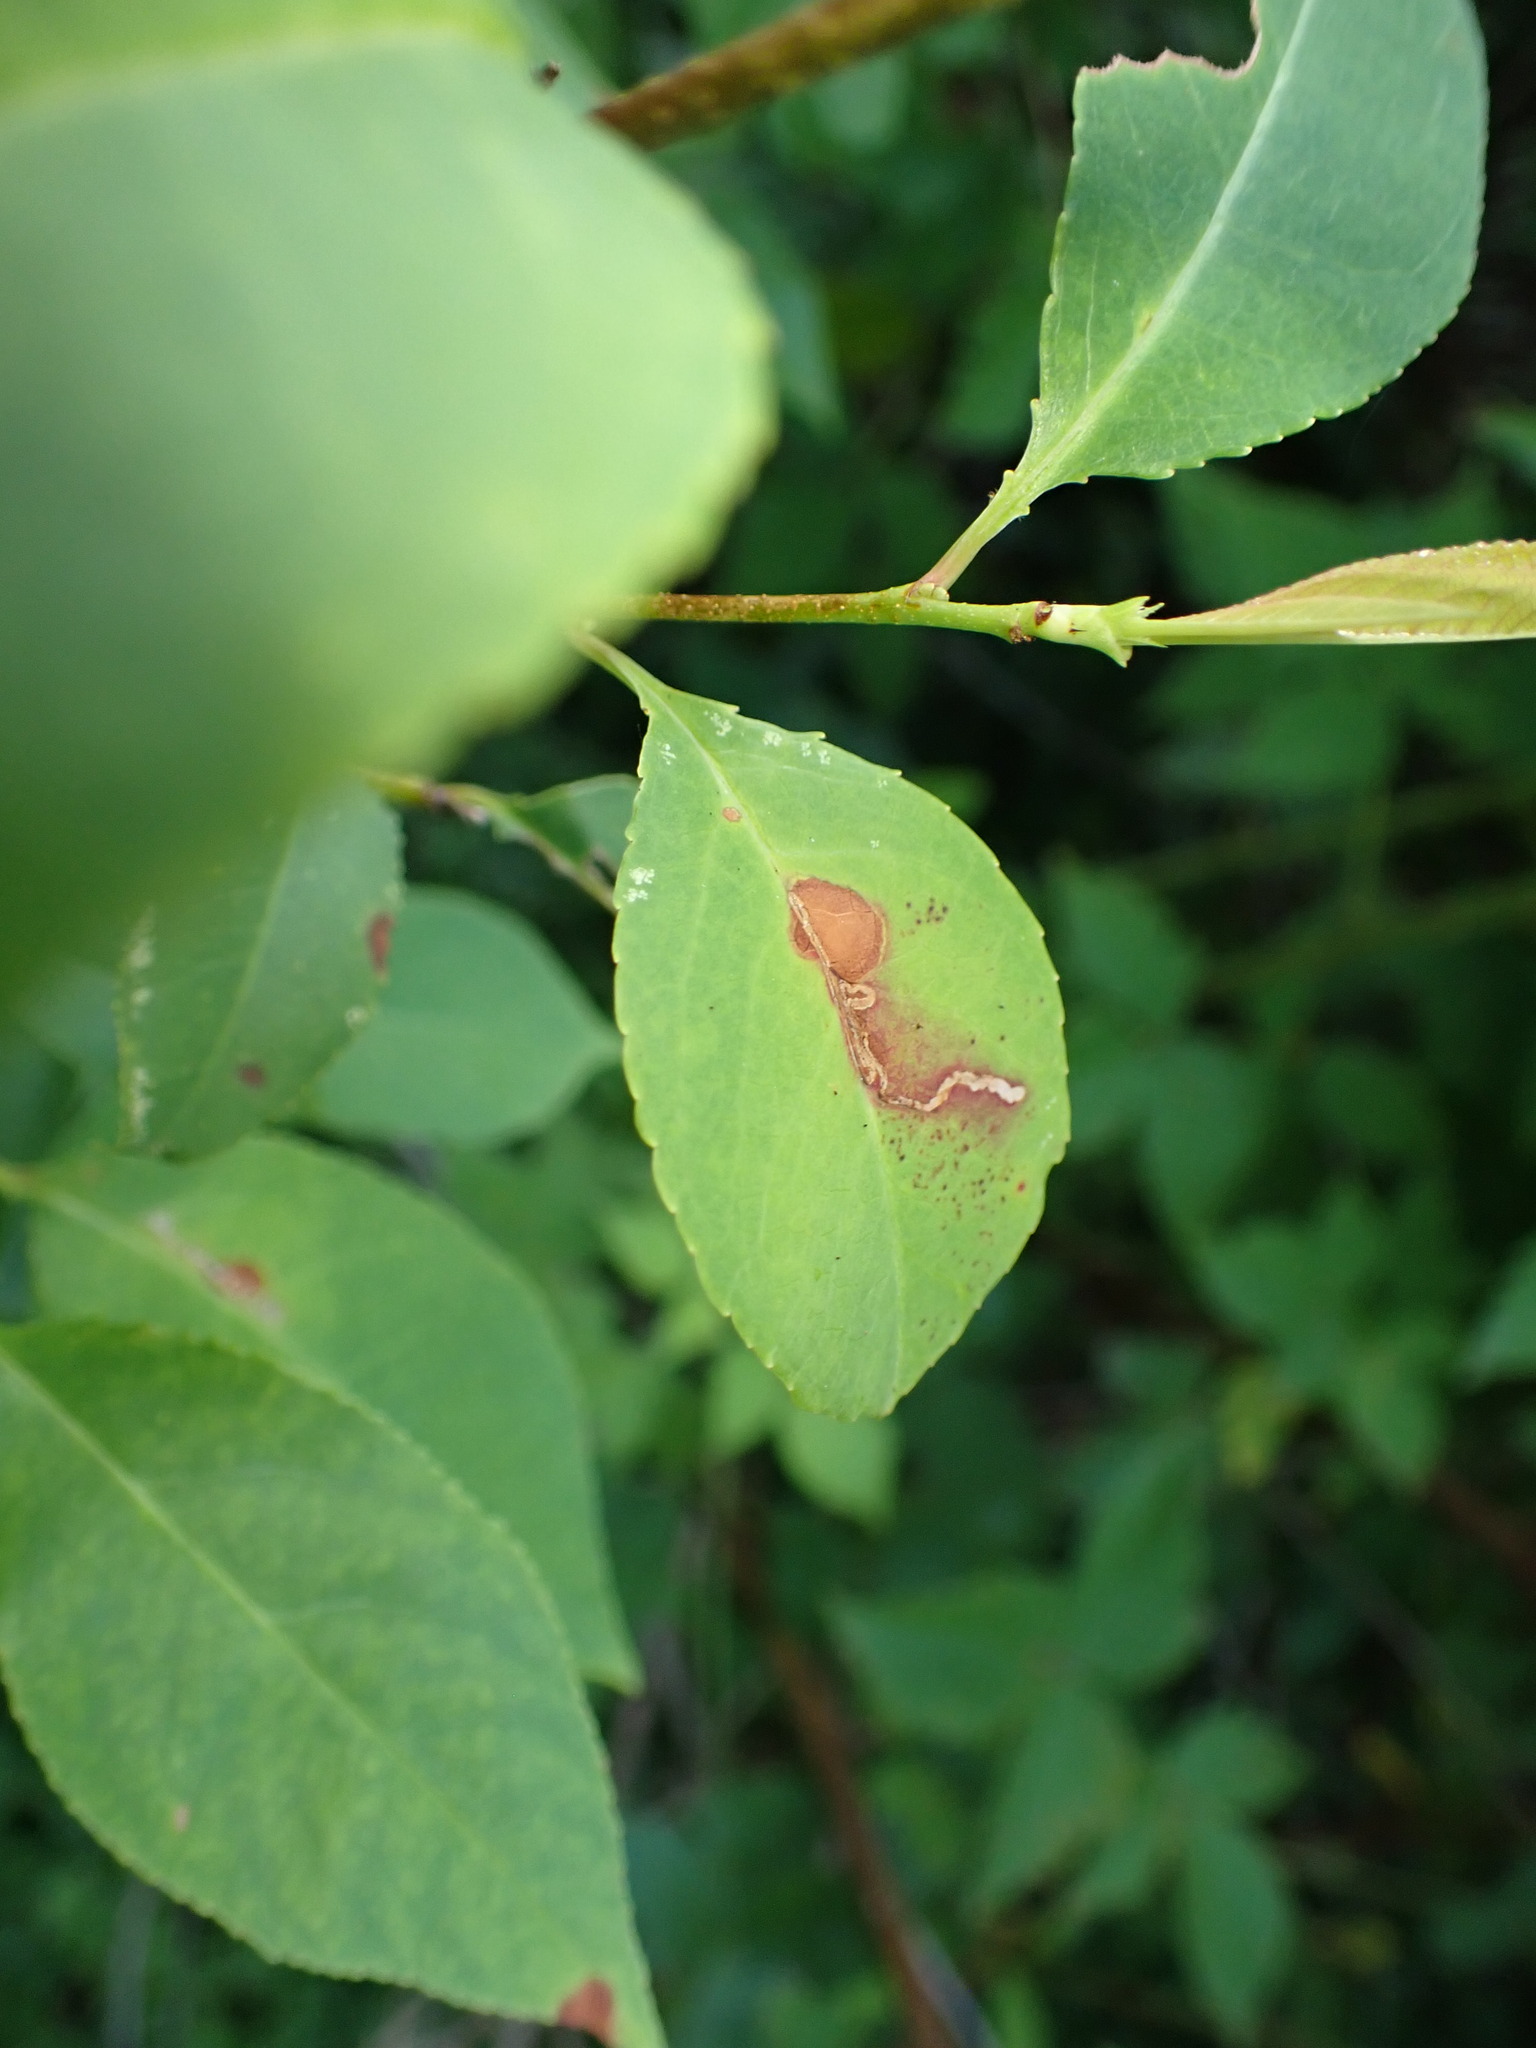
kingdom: Animalia
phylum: Arthropoda
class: Insecta
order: Lepidoptera
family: Nepticulidae
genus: Stigmella
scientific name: Stigmella prunifoliella
